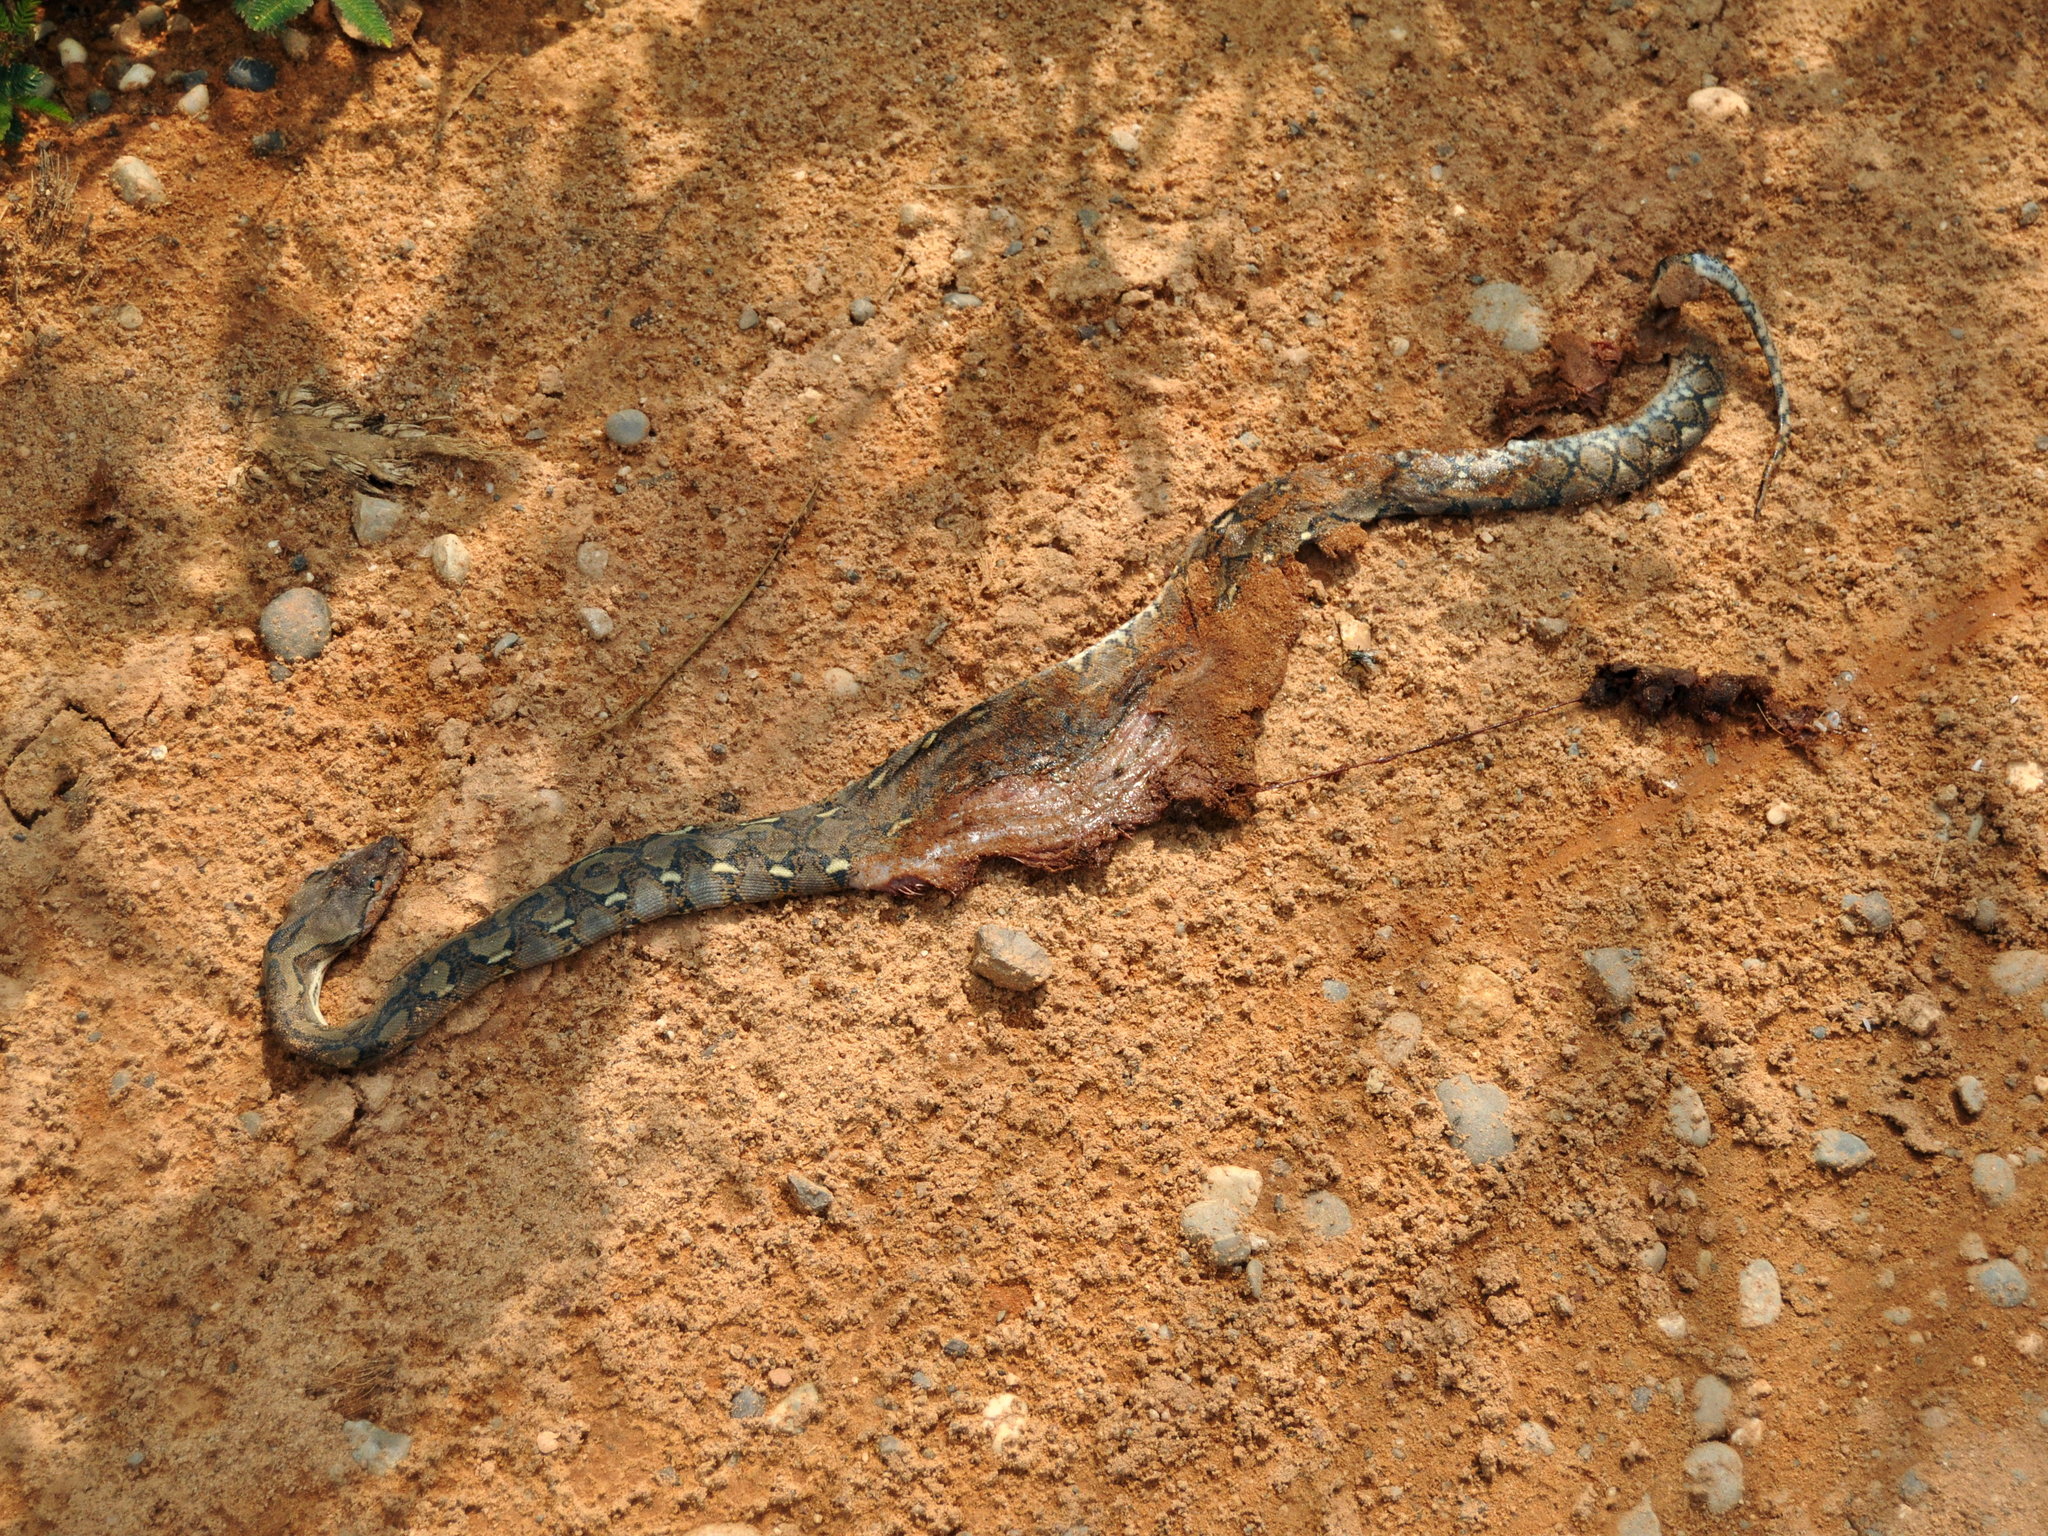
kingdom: Animalia
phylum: Chordata
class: Squamata
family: Pythonidae
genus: Malayopython
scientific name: Malayopython reticulatus
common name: Reticulated python
